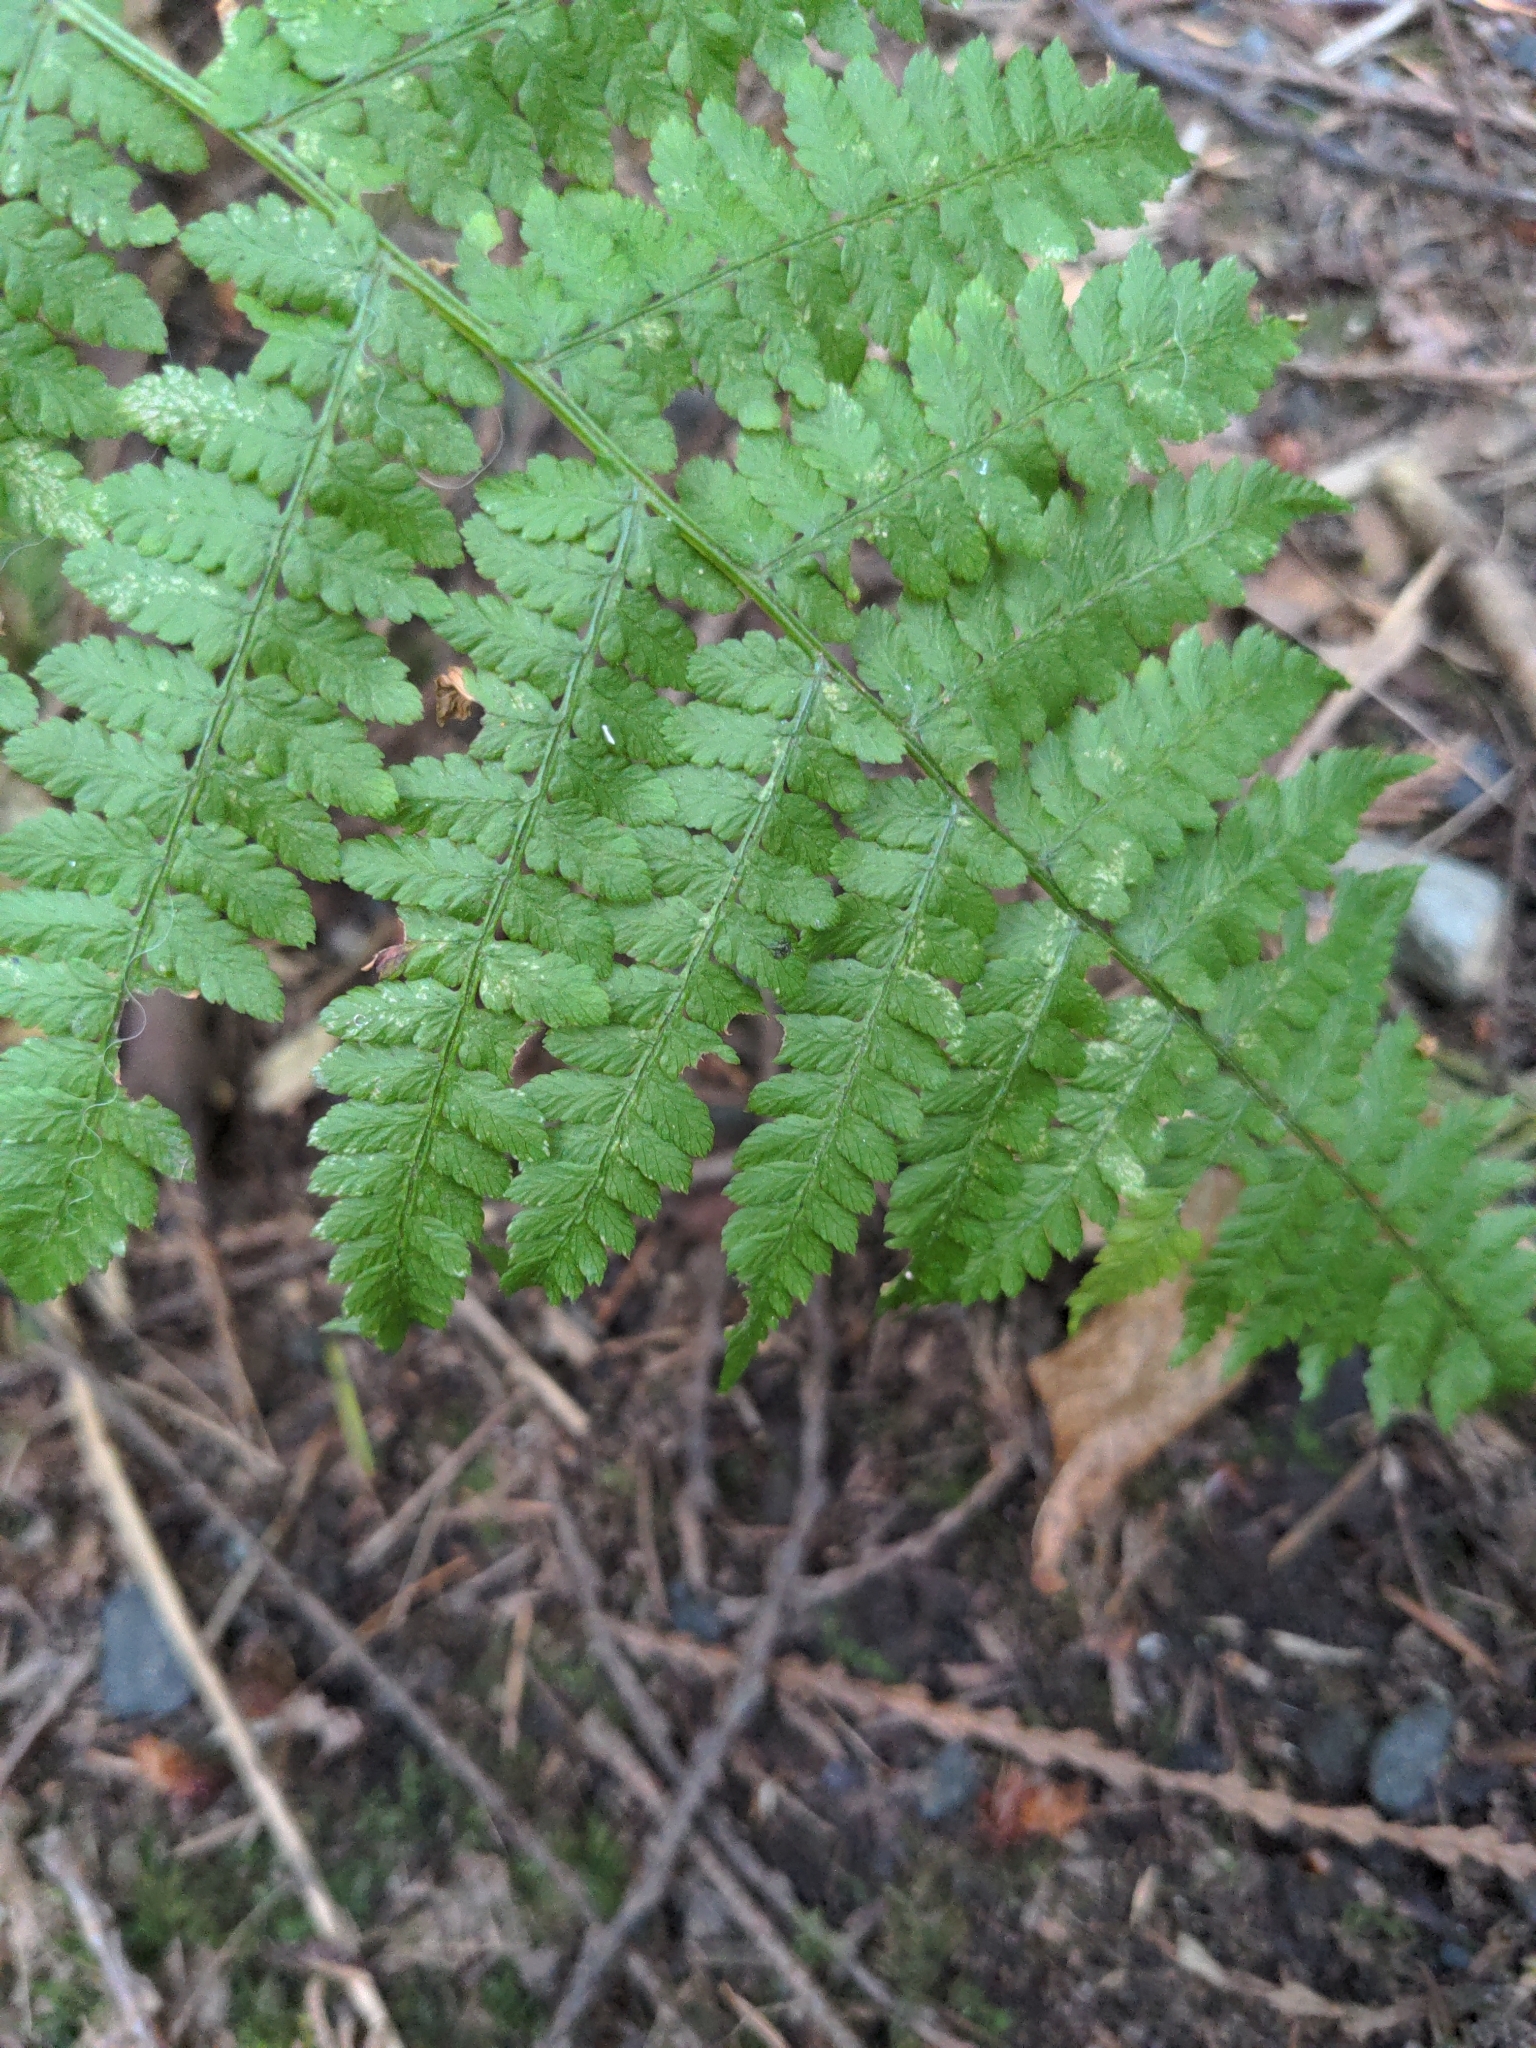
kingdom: Plantae
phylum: Tracheophyta
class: Polypodiopsida
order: Polypodiales
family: Athyriaceae
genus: Athyrium
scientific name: Athyrium cyclosorum
